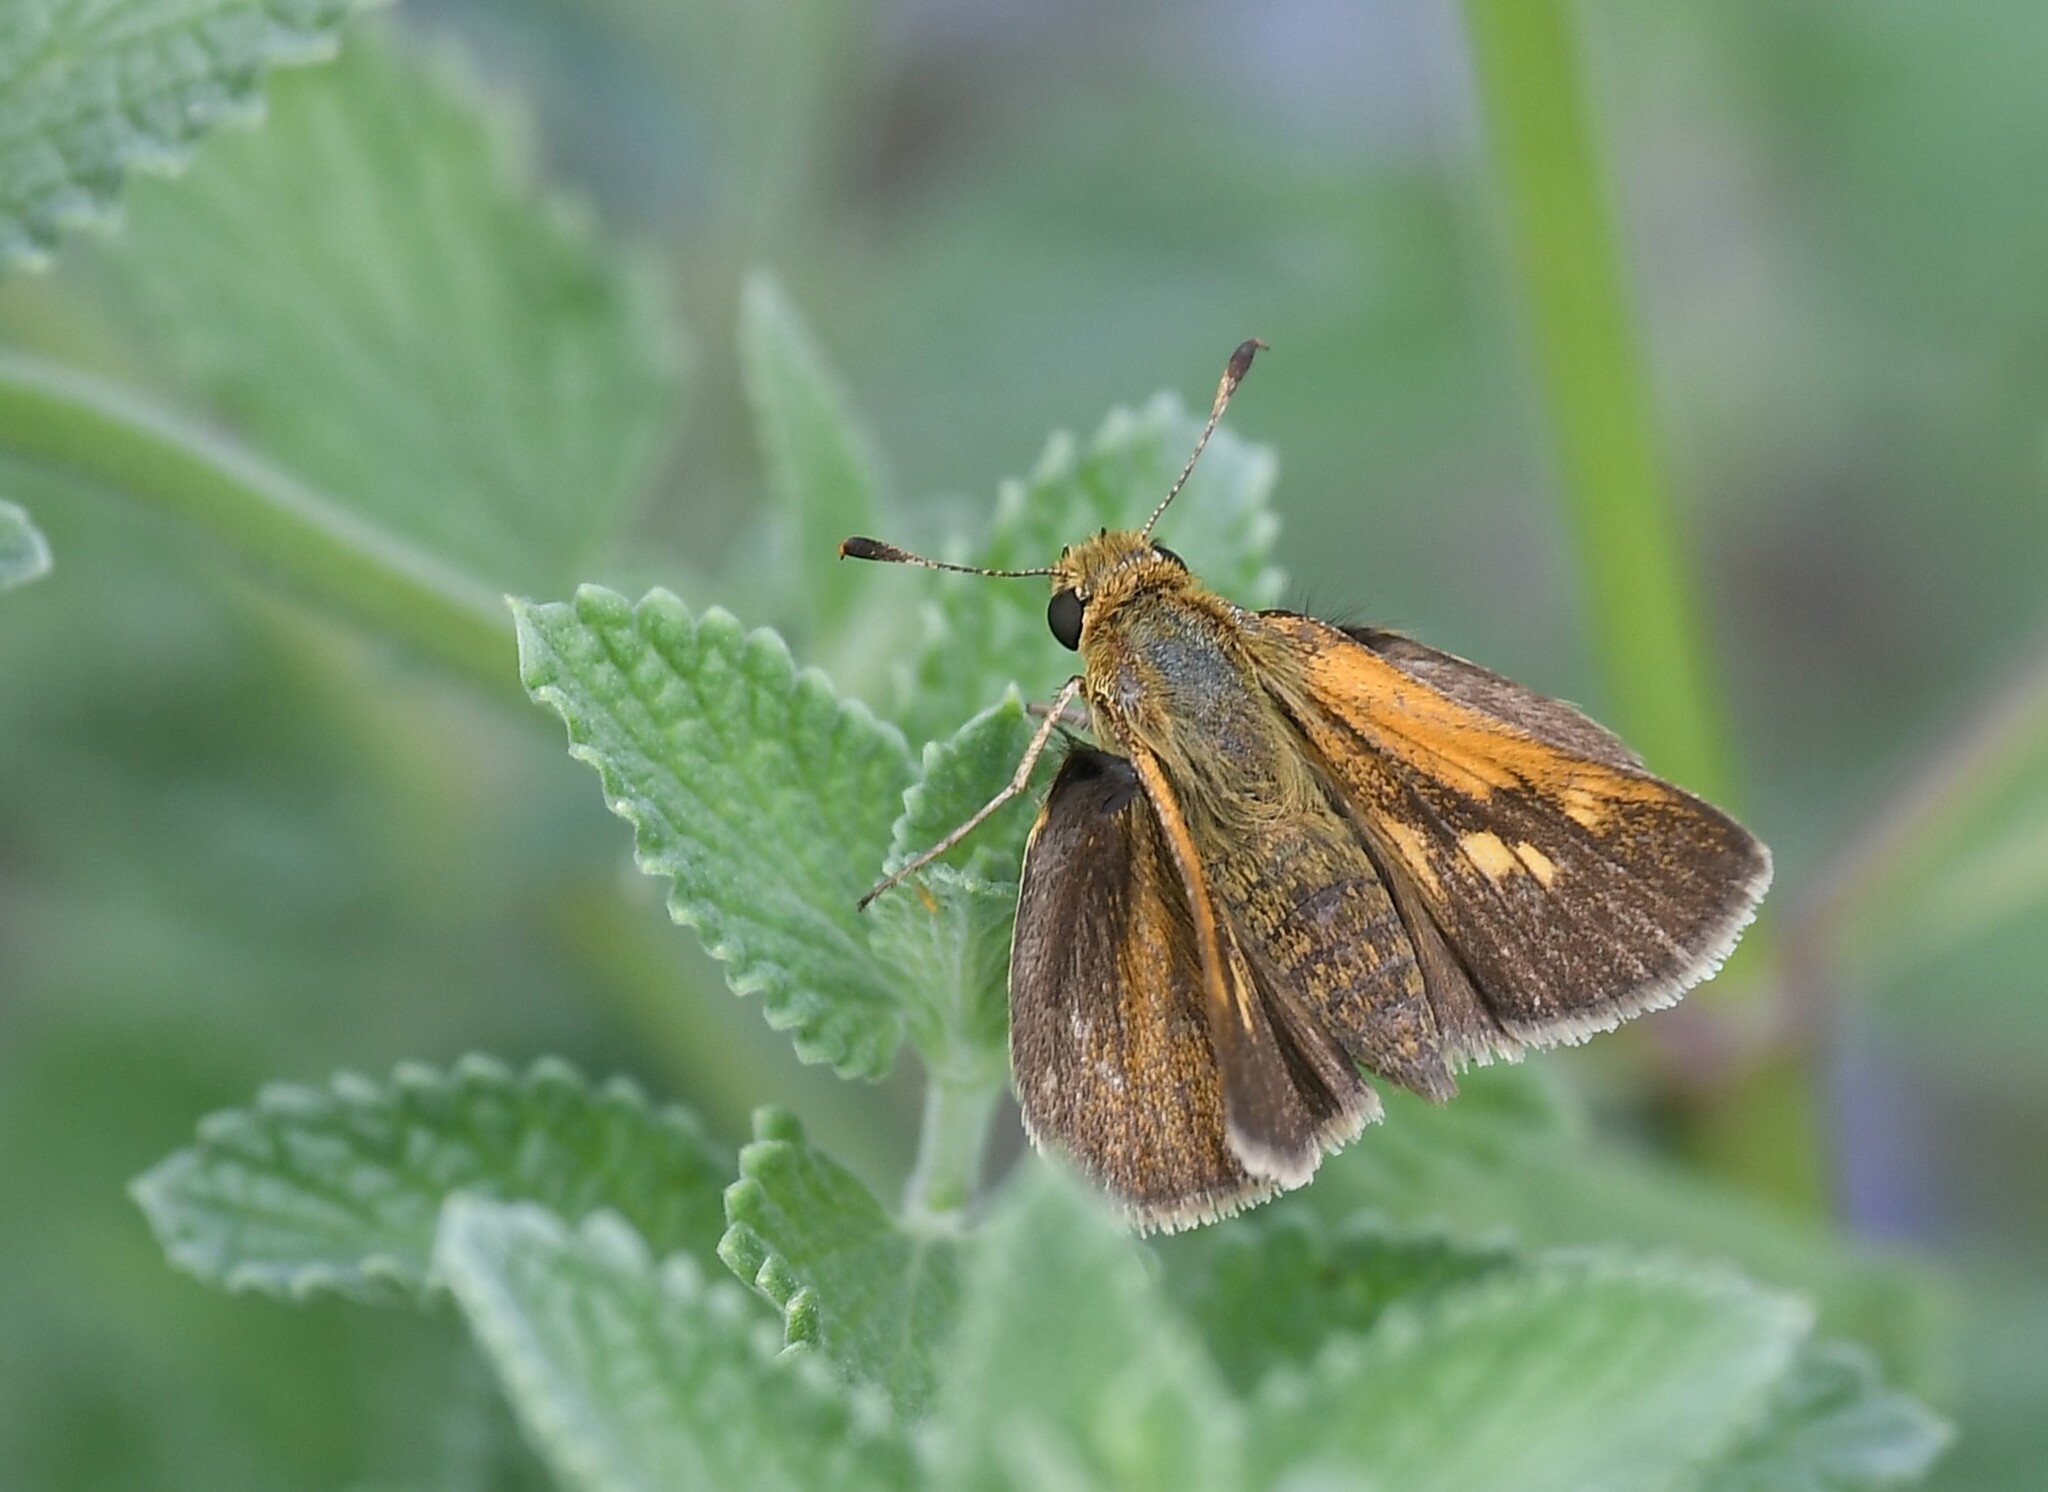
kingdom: Animalia
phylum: Arthropoda
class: Insecta
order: Lepidoptera
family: Hesperiidae
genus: Polites
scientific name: Polites themistocles
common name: Tawny-edged skipper
